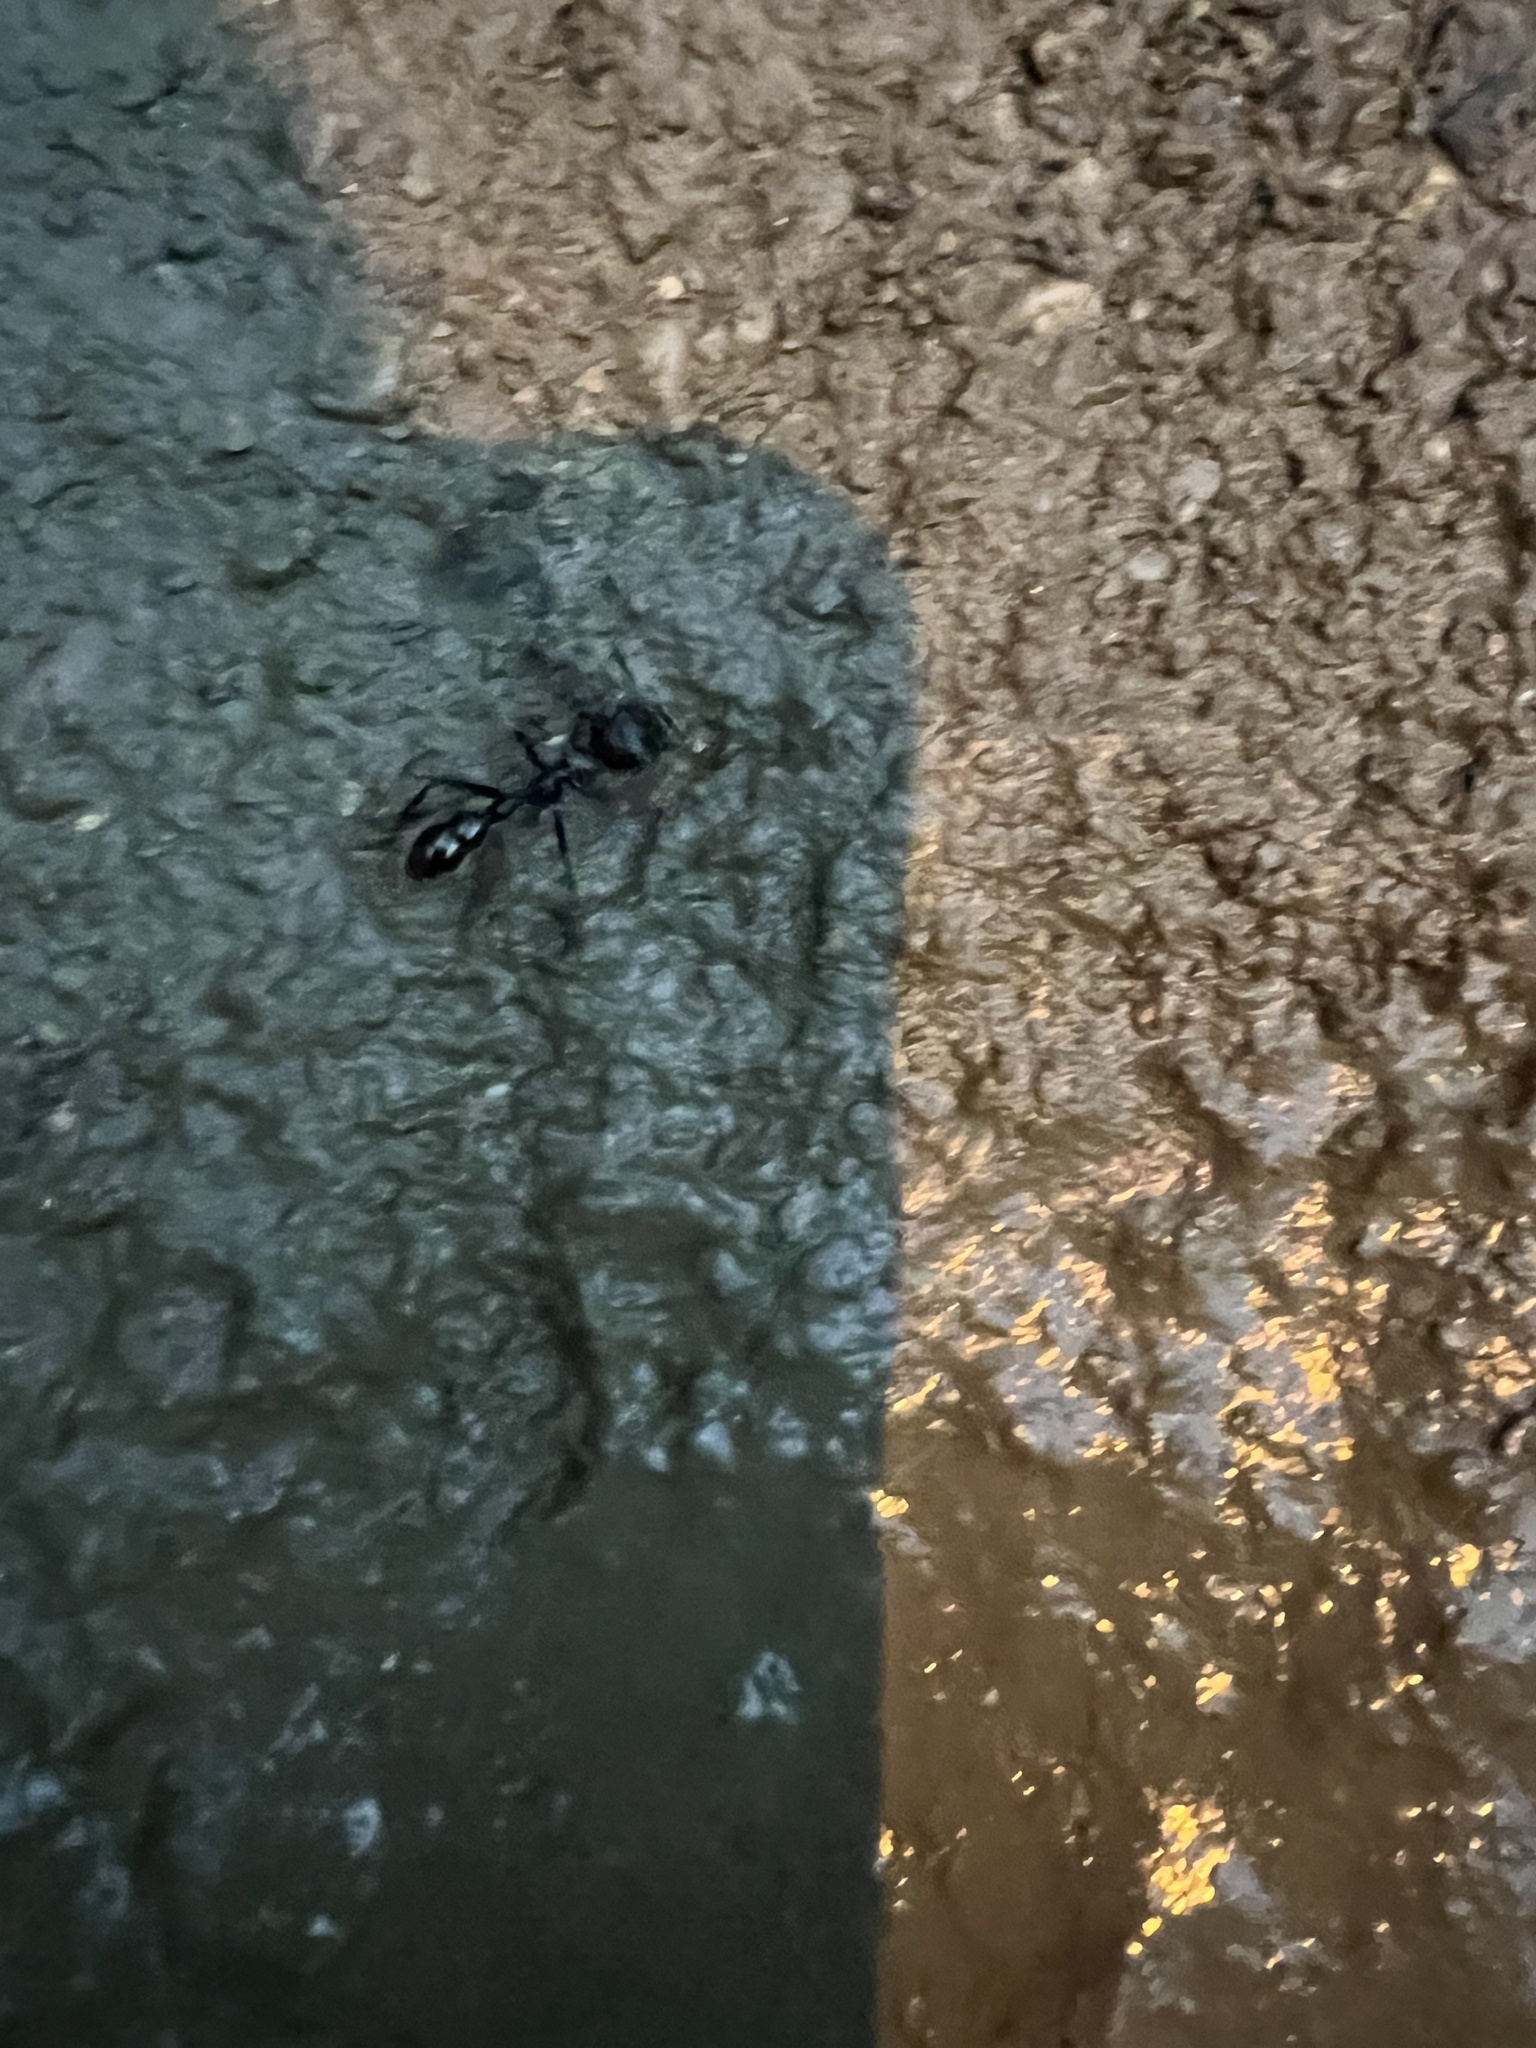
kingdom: Animalia
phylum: Arthropoda
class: Insecta
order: Hymenoptera
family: Formicidae
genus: Paraponera
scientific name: Paraponera clavata
